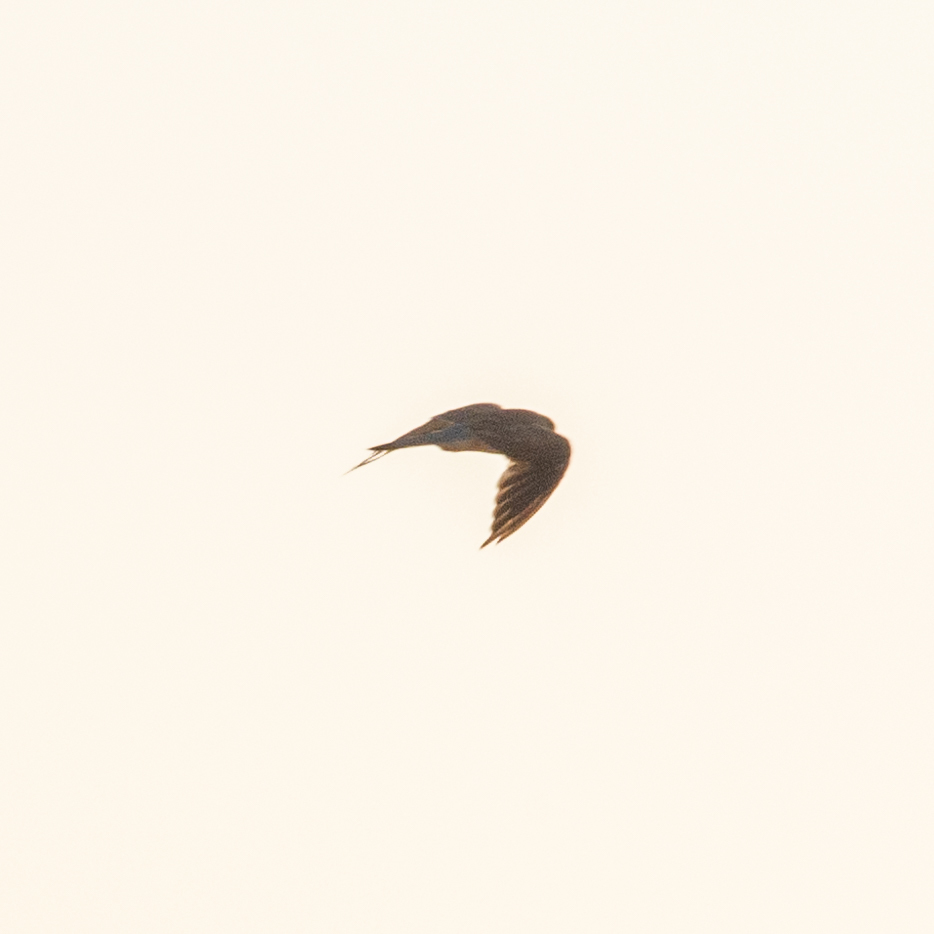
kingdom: Animalia
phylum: Chordata
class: Aves
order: Falconiformes
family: Falconidae
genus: Falco
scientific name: Falco subbuteo
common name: Eurasian hobby
